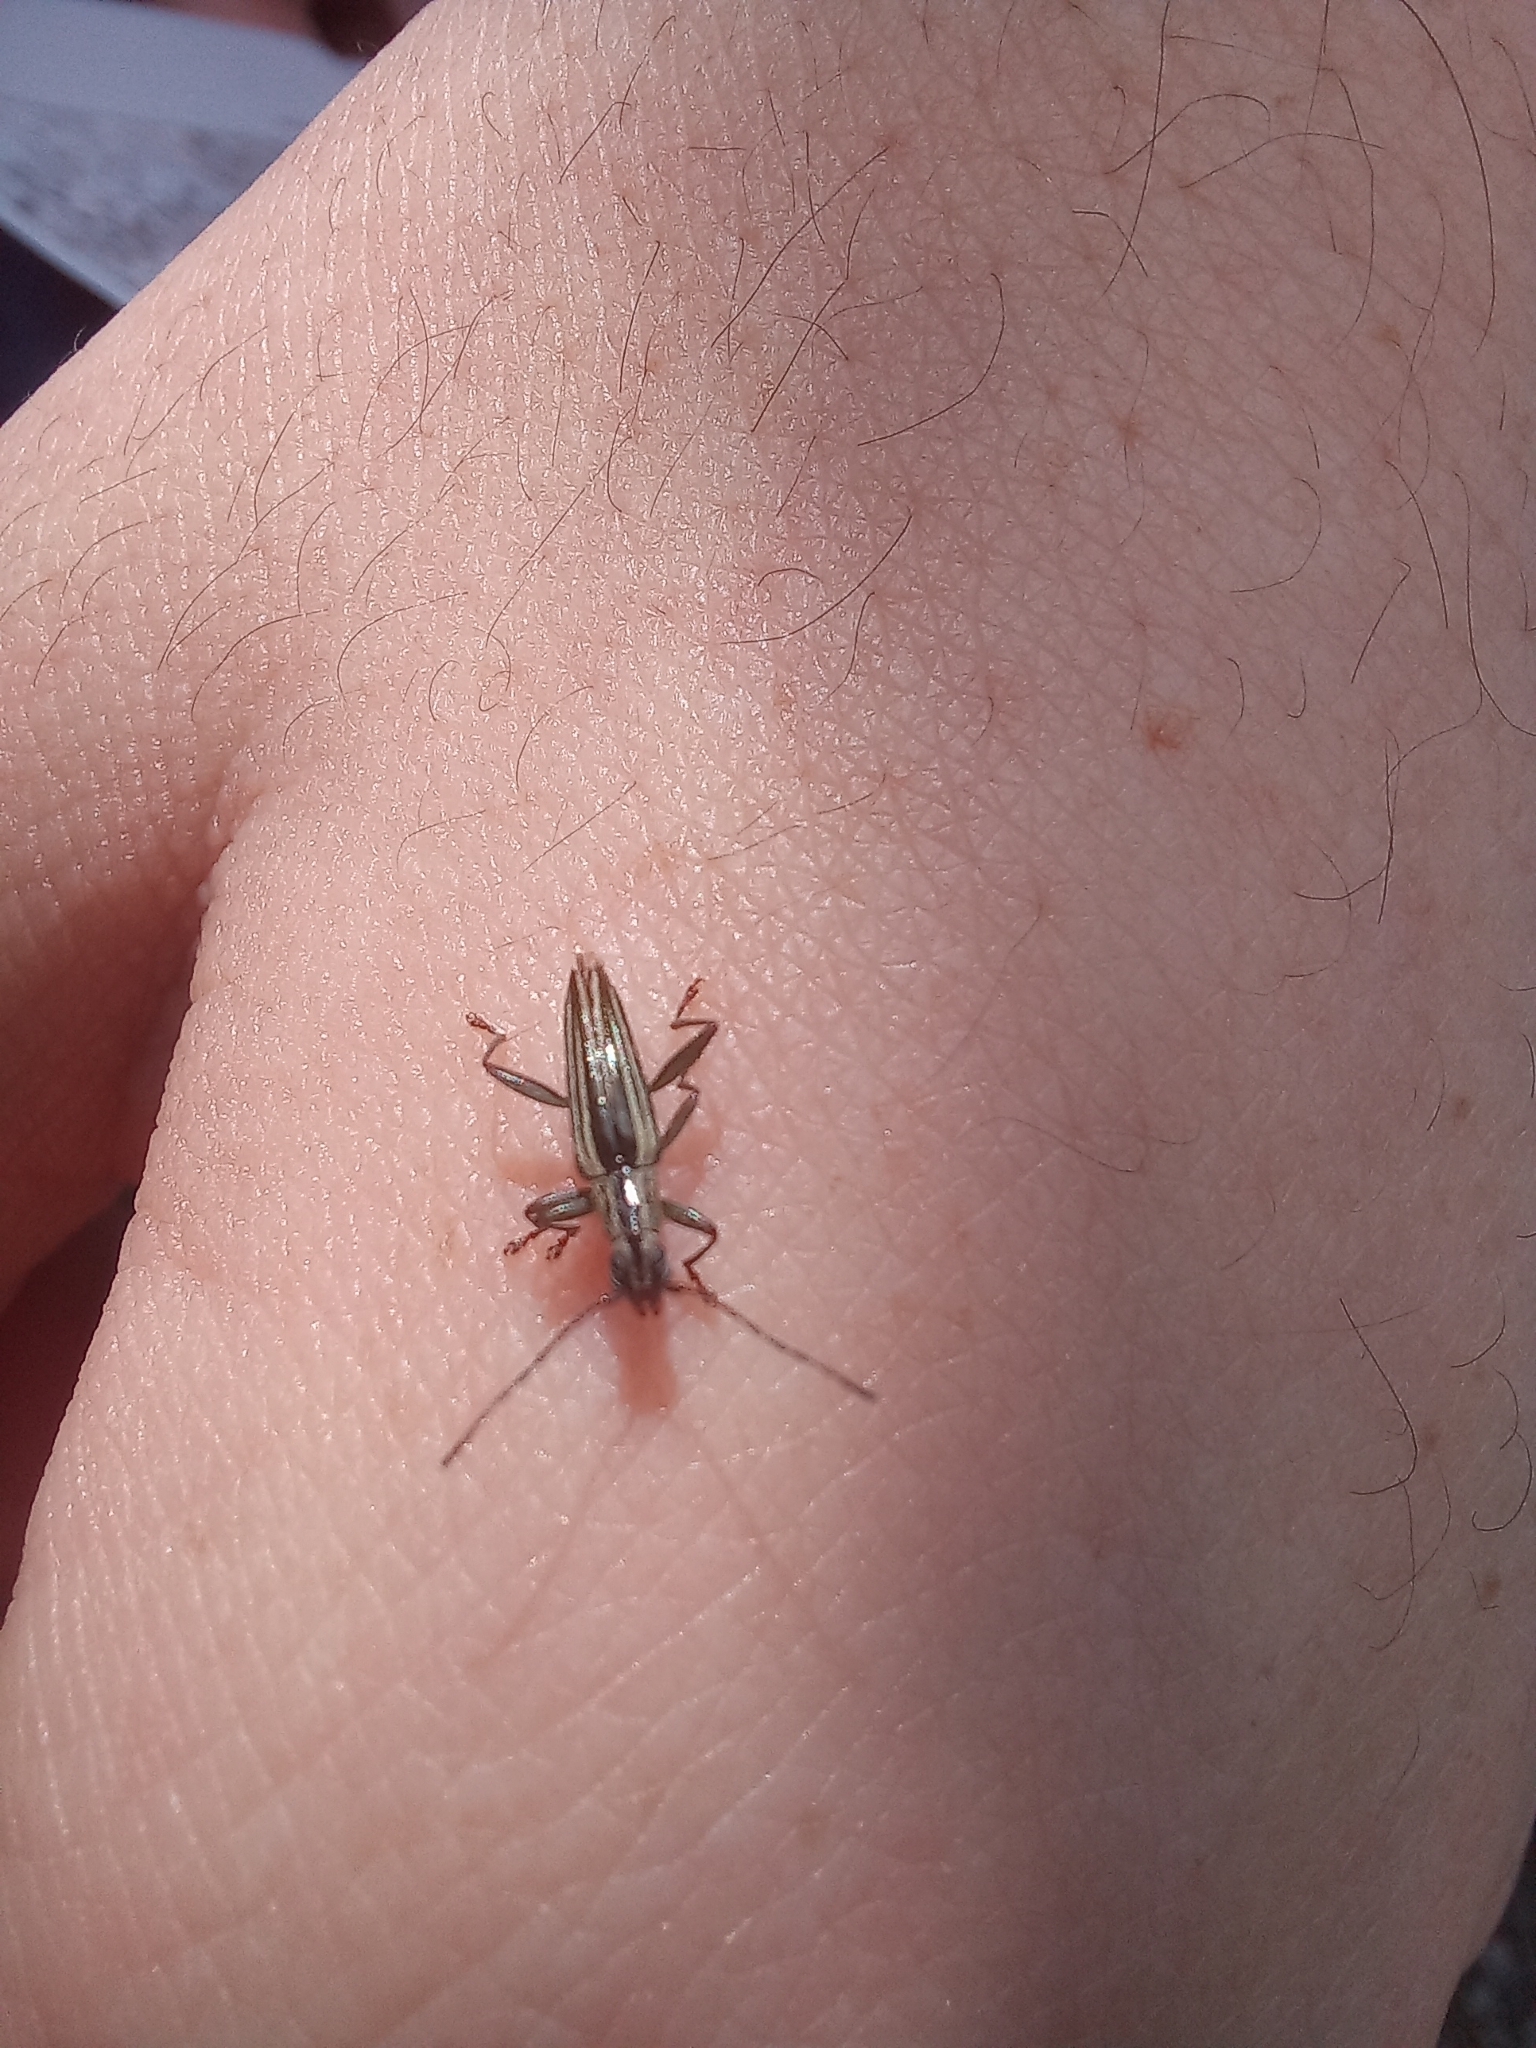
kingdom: Animalia
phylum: Arthropoda
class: Insecta
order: Coleoptera
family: Cerambycidae
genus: Coptomma
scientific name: Coptomma sulcatum
